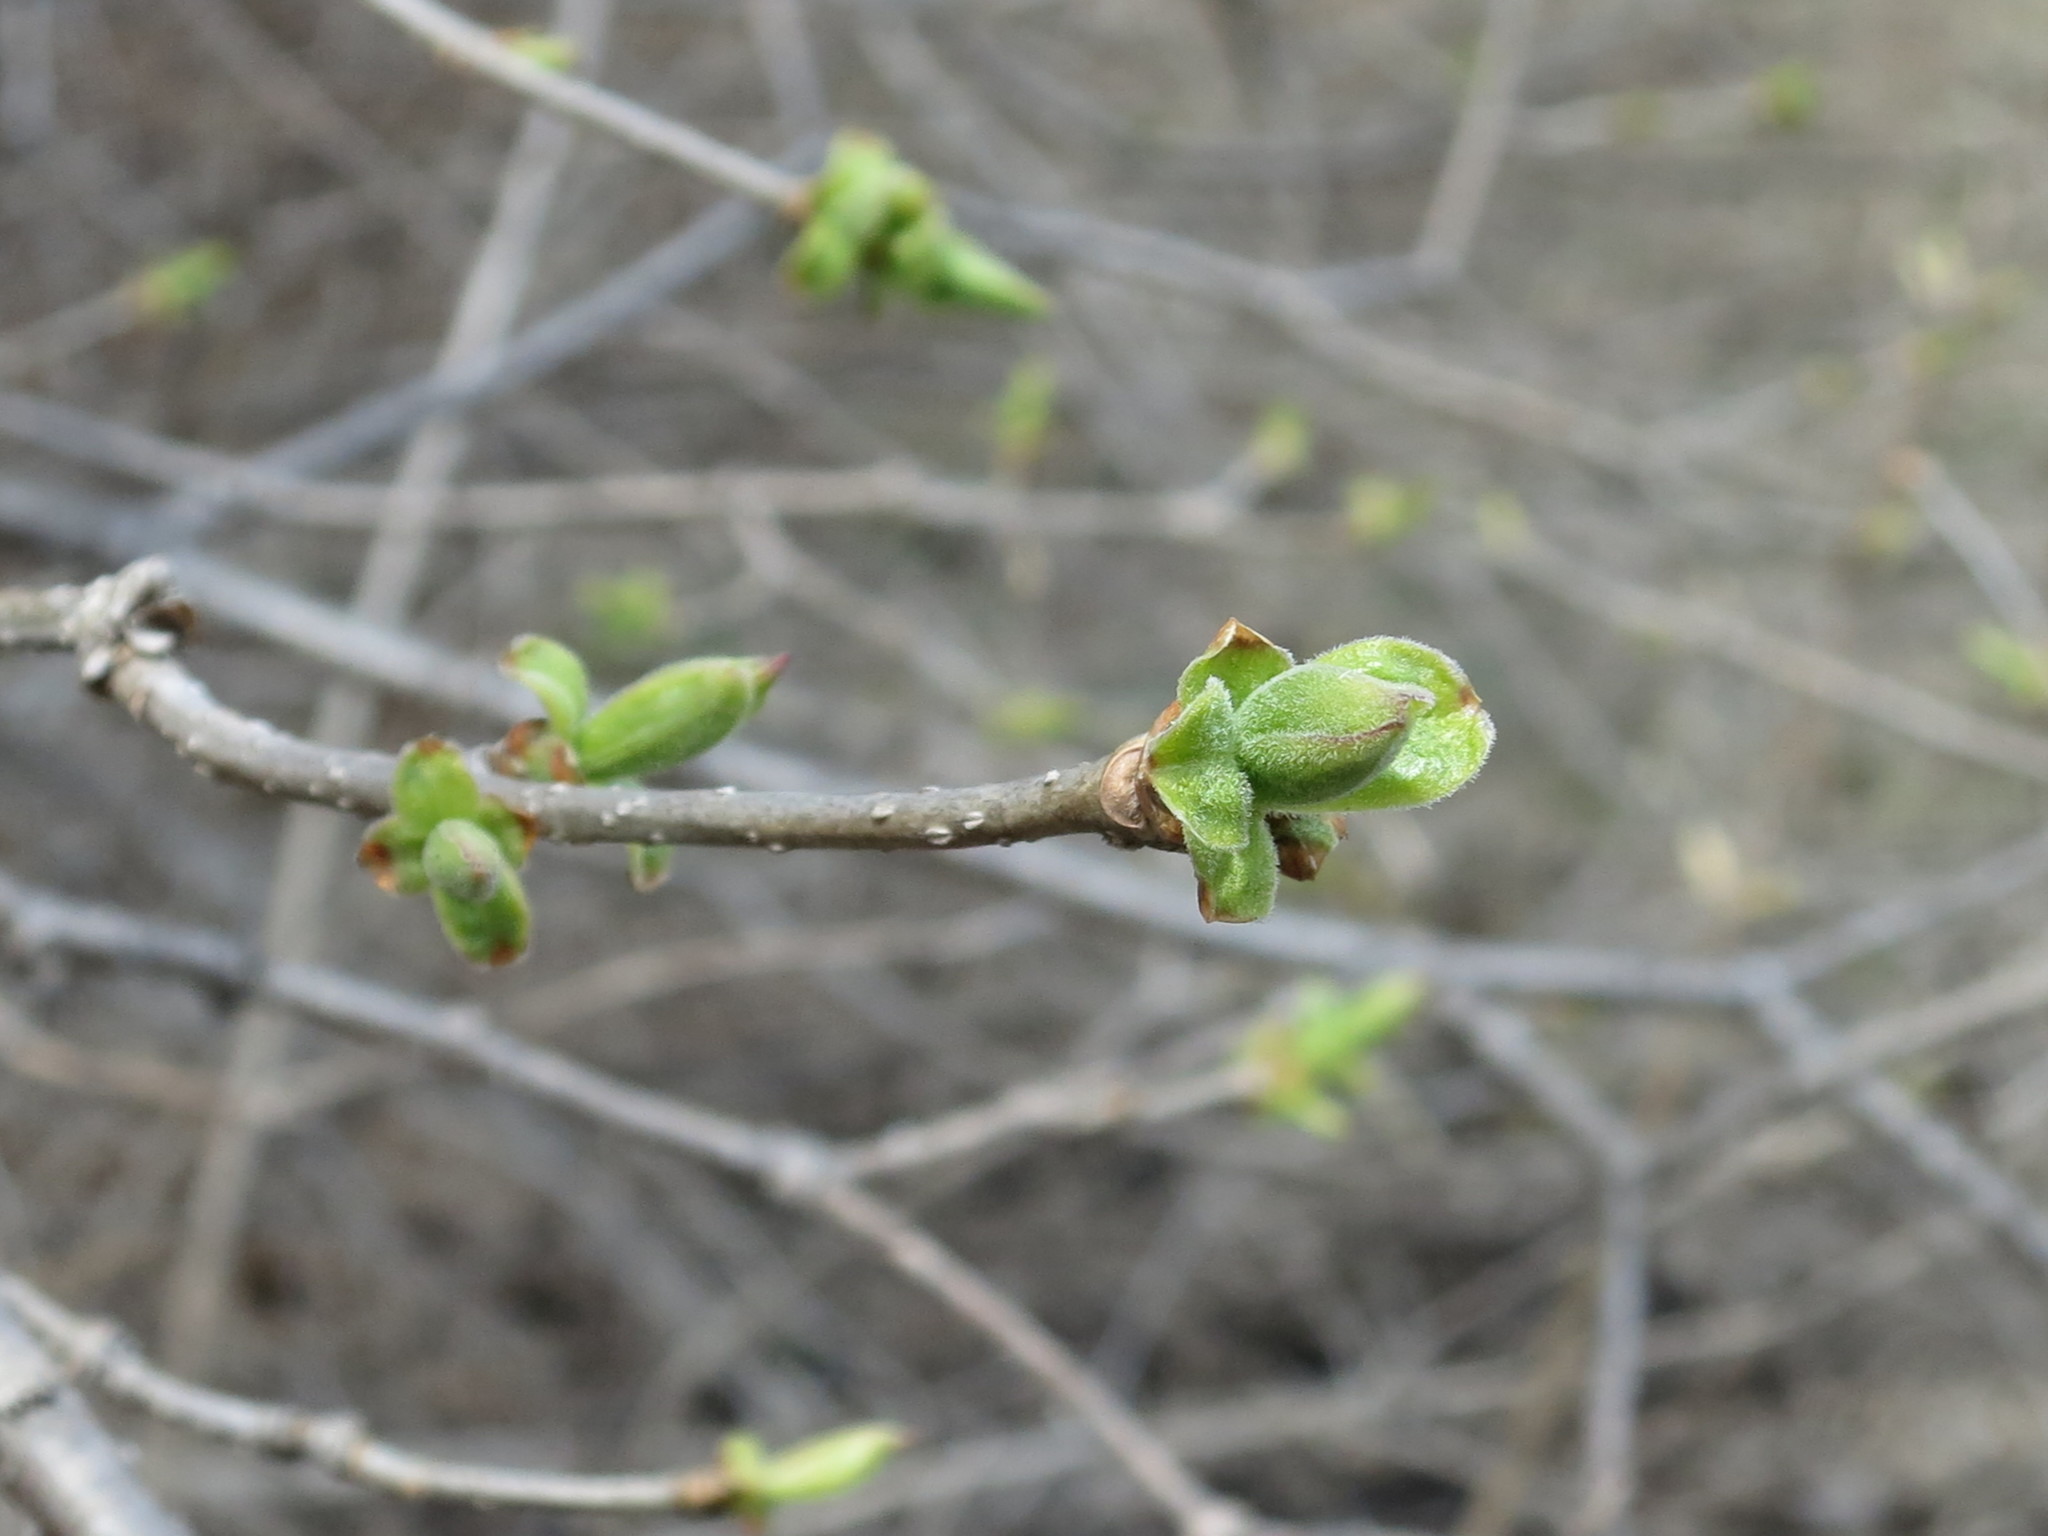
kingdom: Plantae
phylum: Tracheophyta
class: Magnoliopsida
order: Lamiales
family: Oleaceae
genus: Syringa
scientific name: Syringa reticulata
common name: Japanese tree lilac
